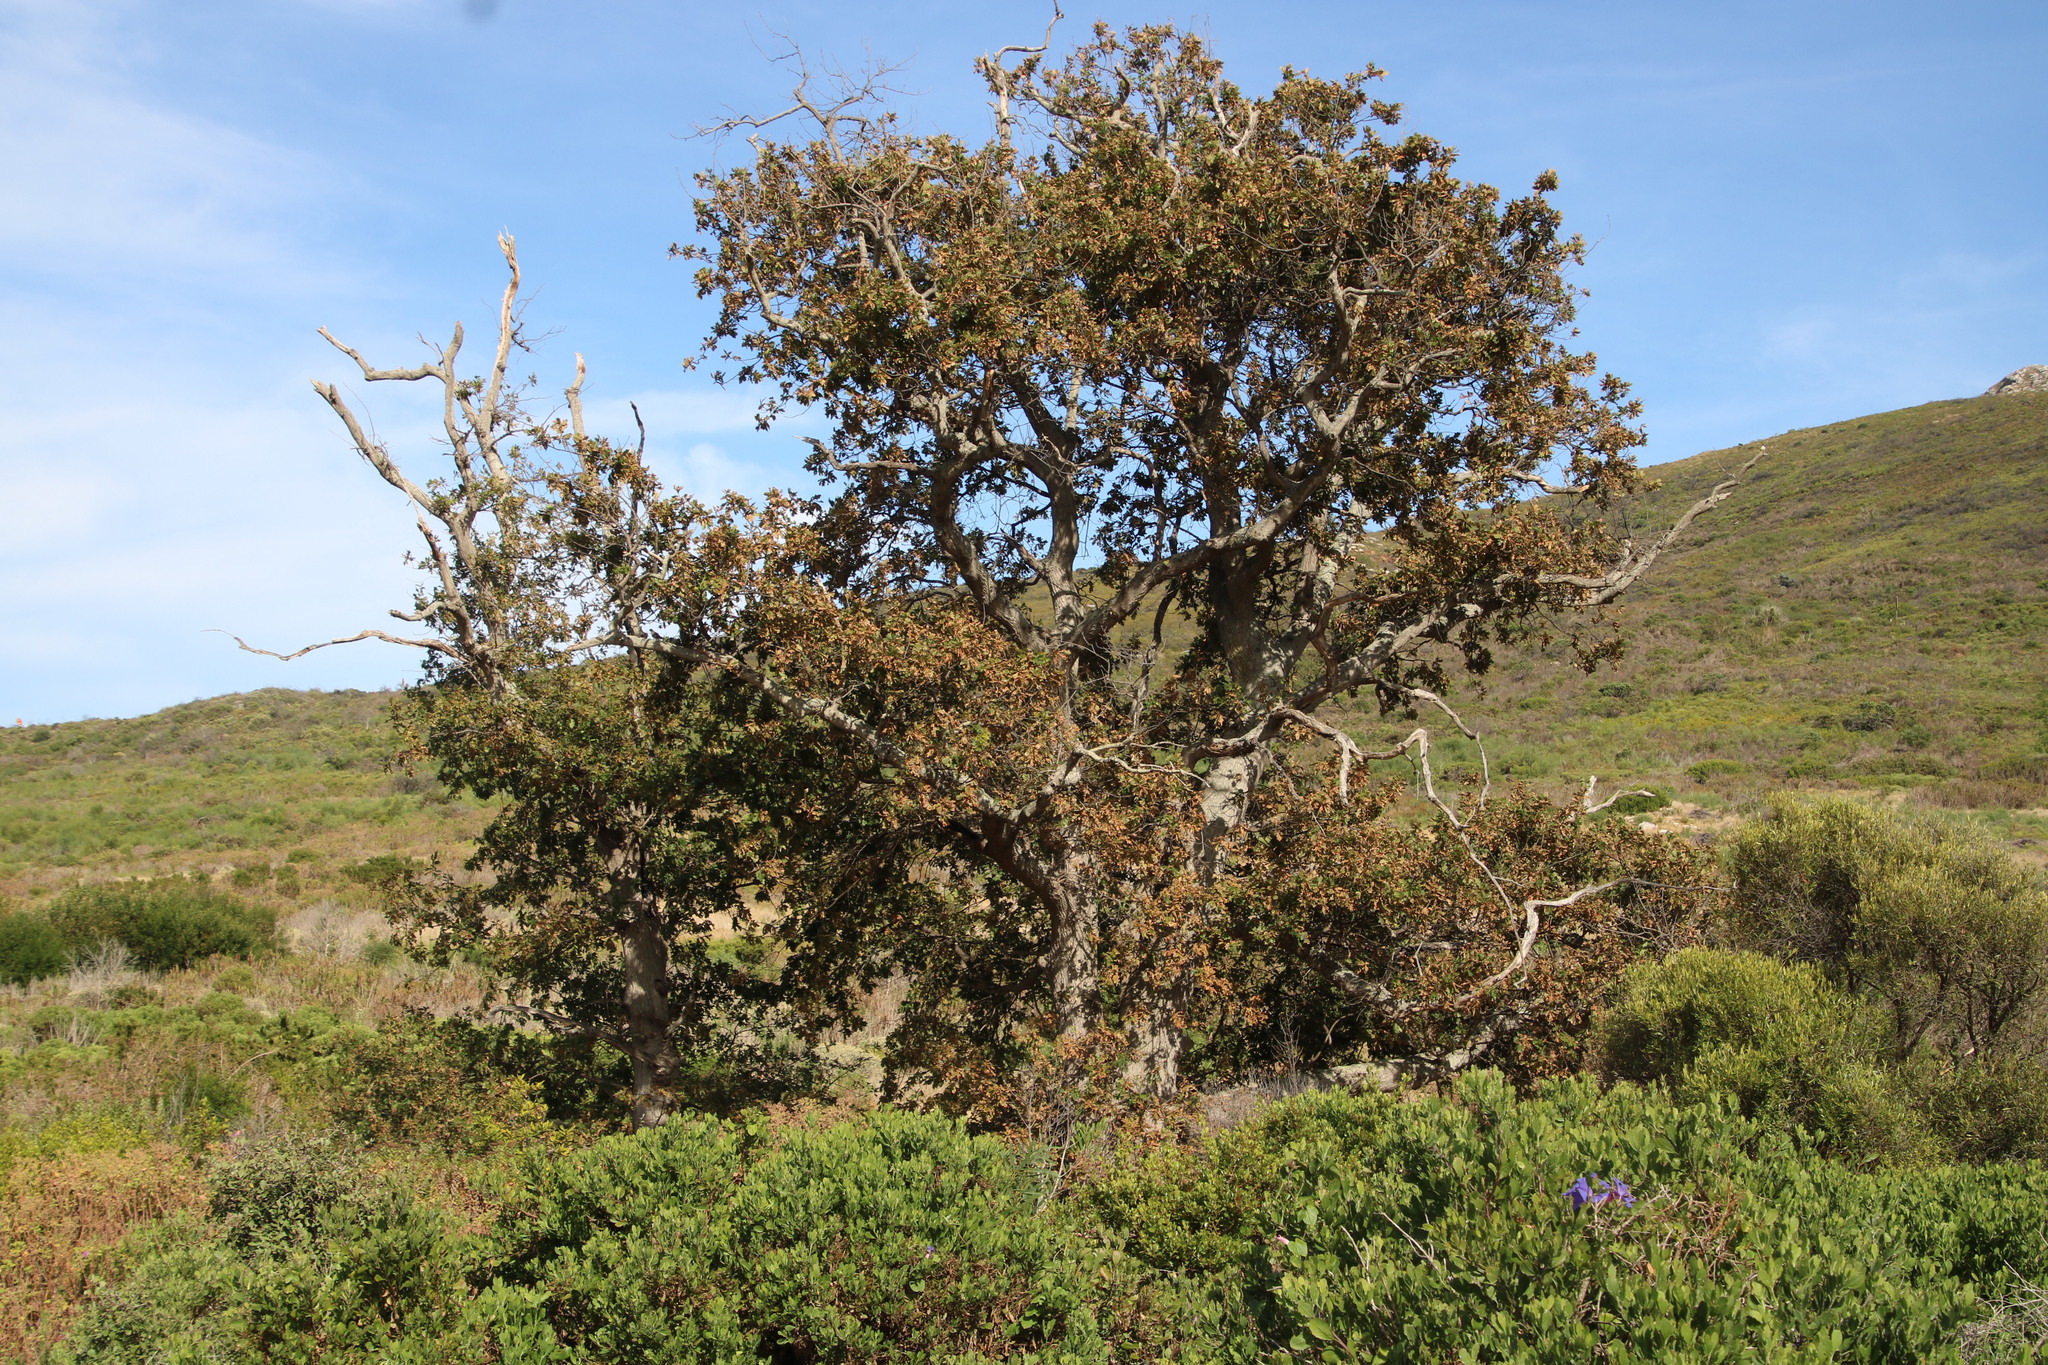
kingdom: Plantae
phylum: Tracheophyta
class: Magnoliopsida
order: Fagales
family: Fagaceae
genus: Quercus
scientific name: Quercus robur
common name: Pedunculate oak
